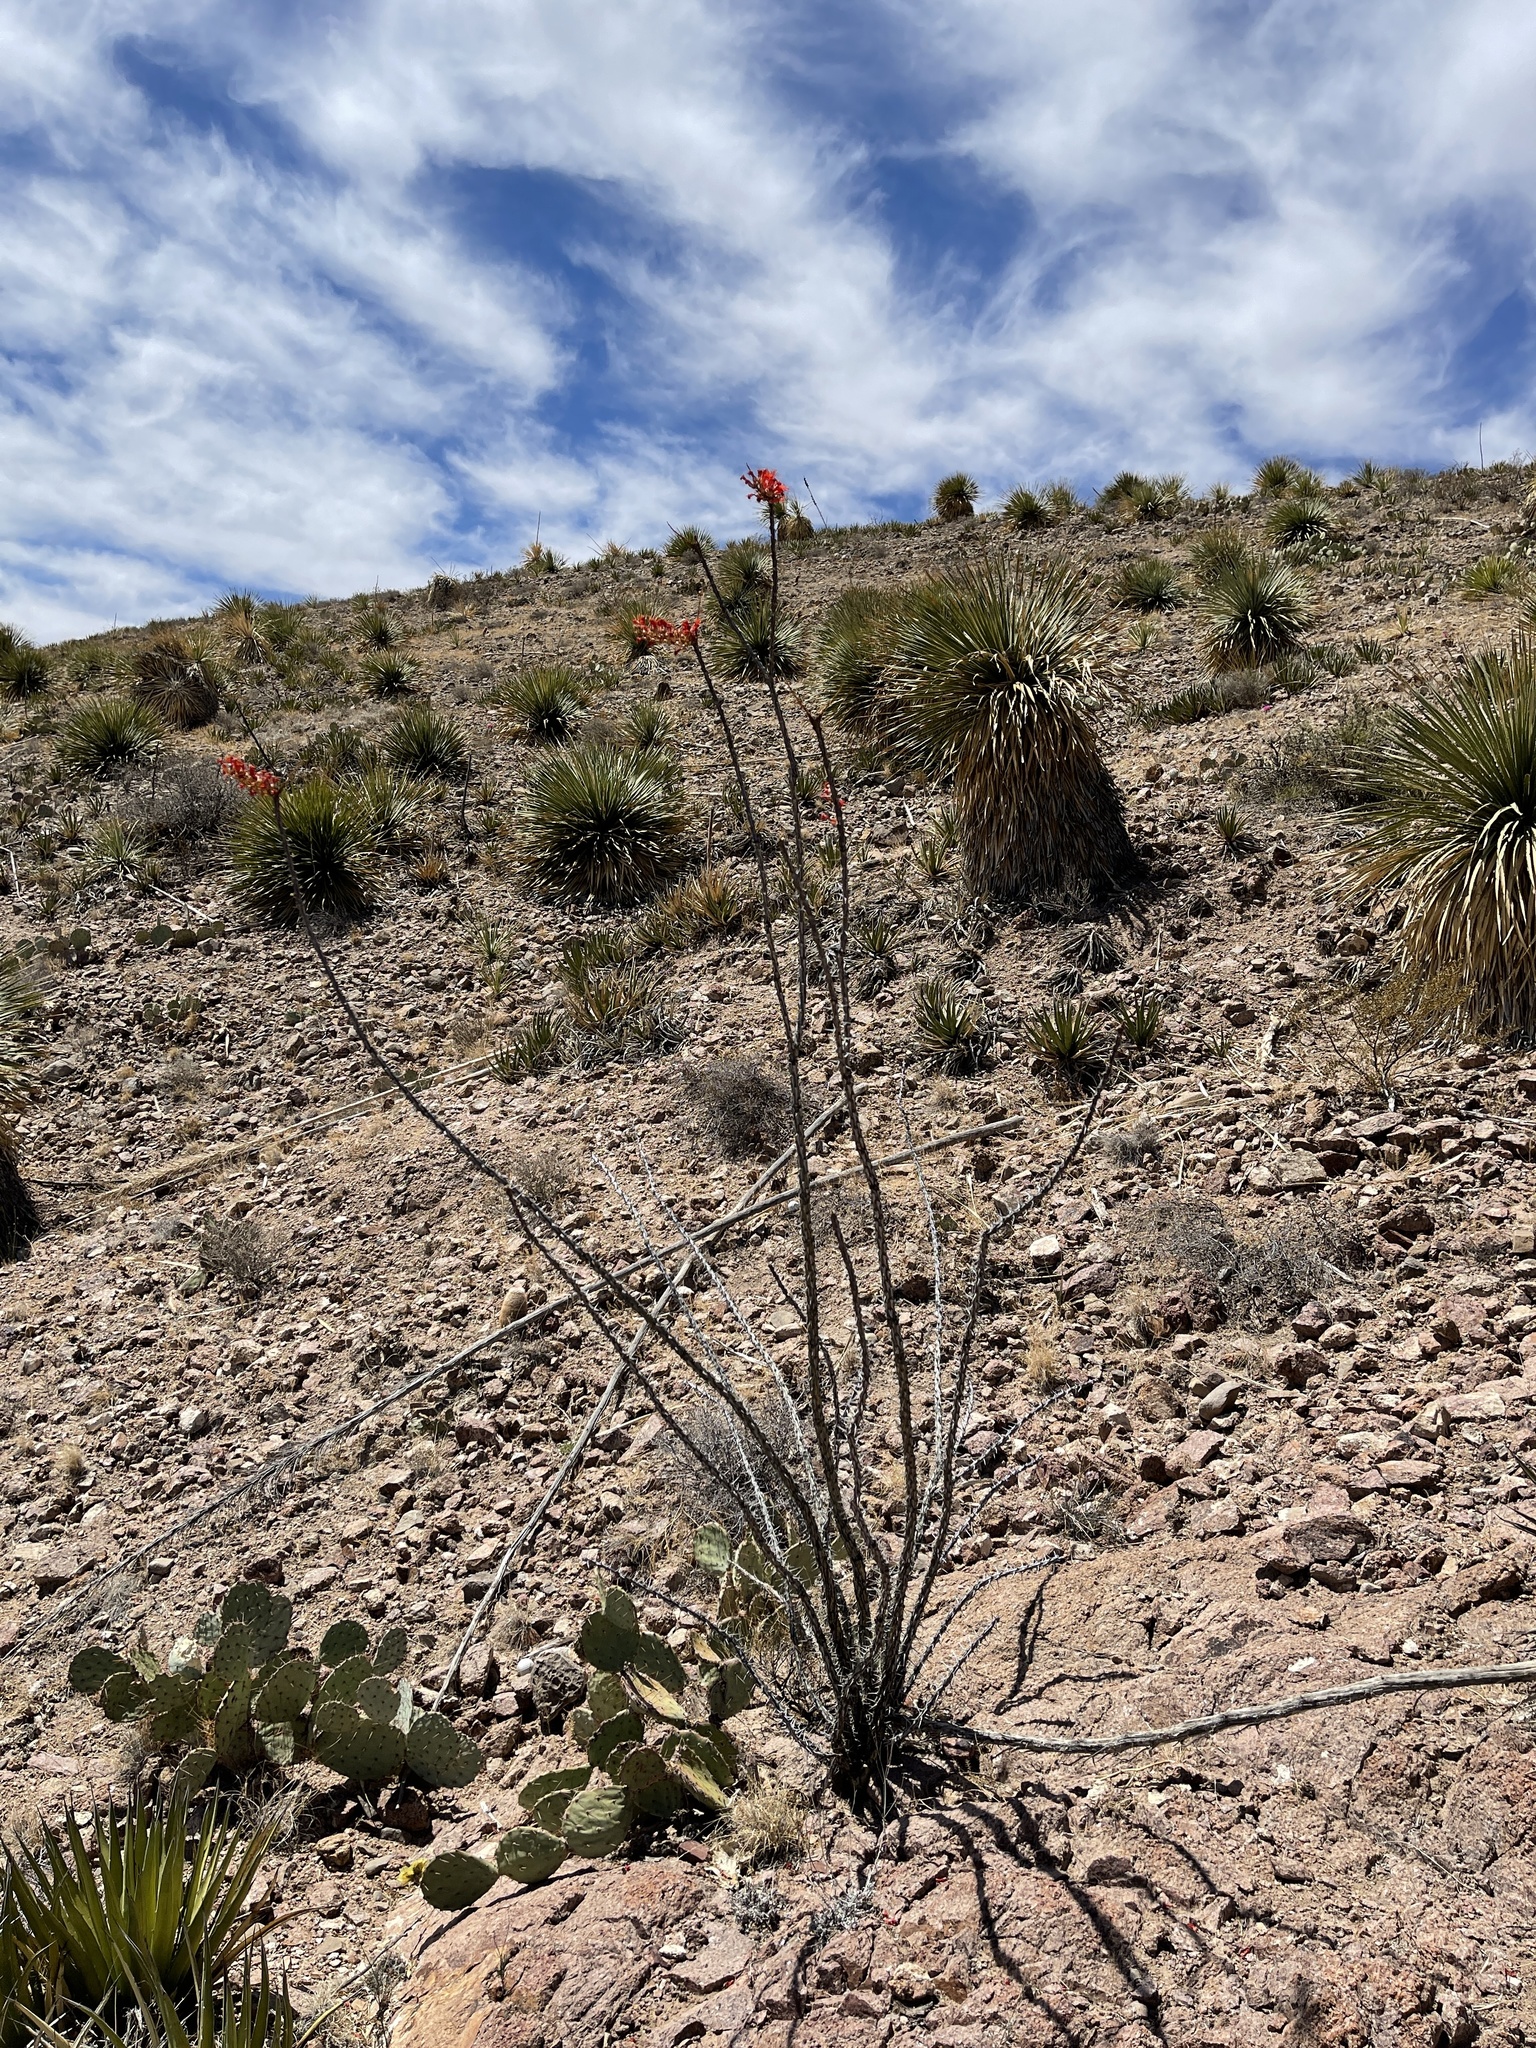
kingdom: Plantae
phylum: Tracheophyta
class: Magnoliopsida
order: Ericales
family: Fouquieriaceae
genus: Fouquieria
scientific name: Fouquieria splendens
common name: Vine-cactus
